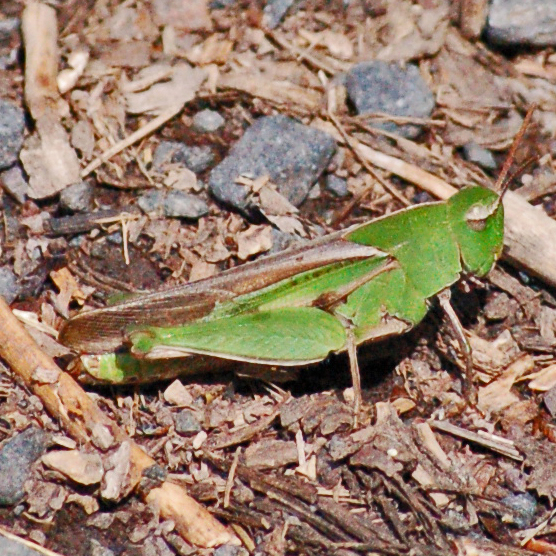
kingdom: Animalia
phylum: Arthropoda
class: Insecta
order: Orthoptera
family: Acrididae
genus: Chortophaga
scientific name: Chortophaga viridifasciata
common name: Green-striped grasshopper
